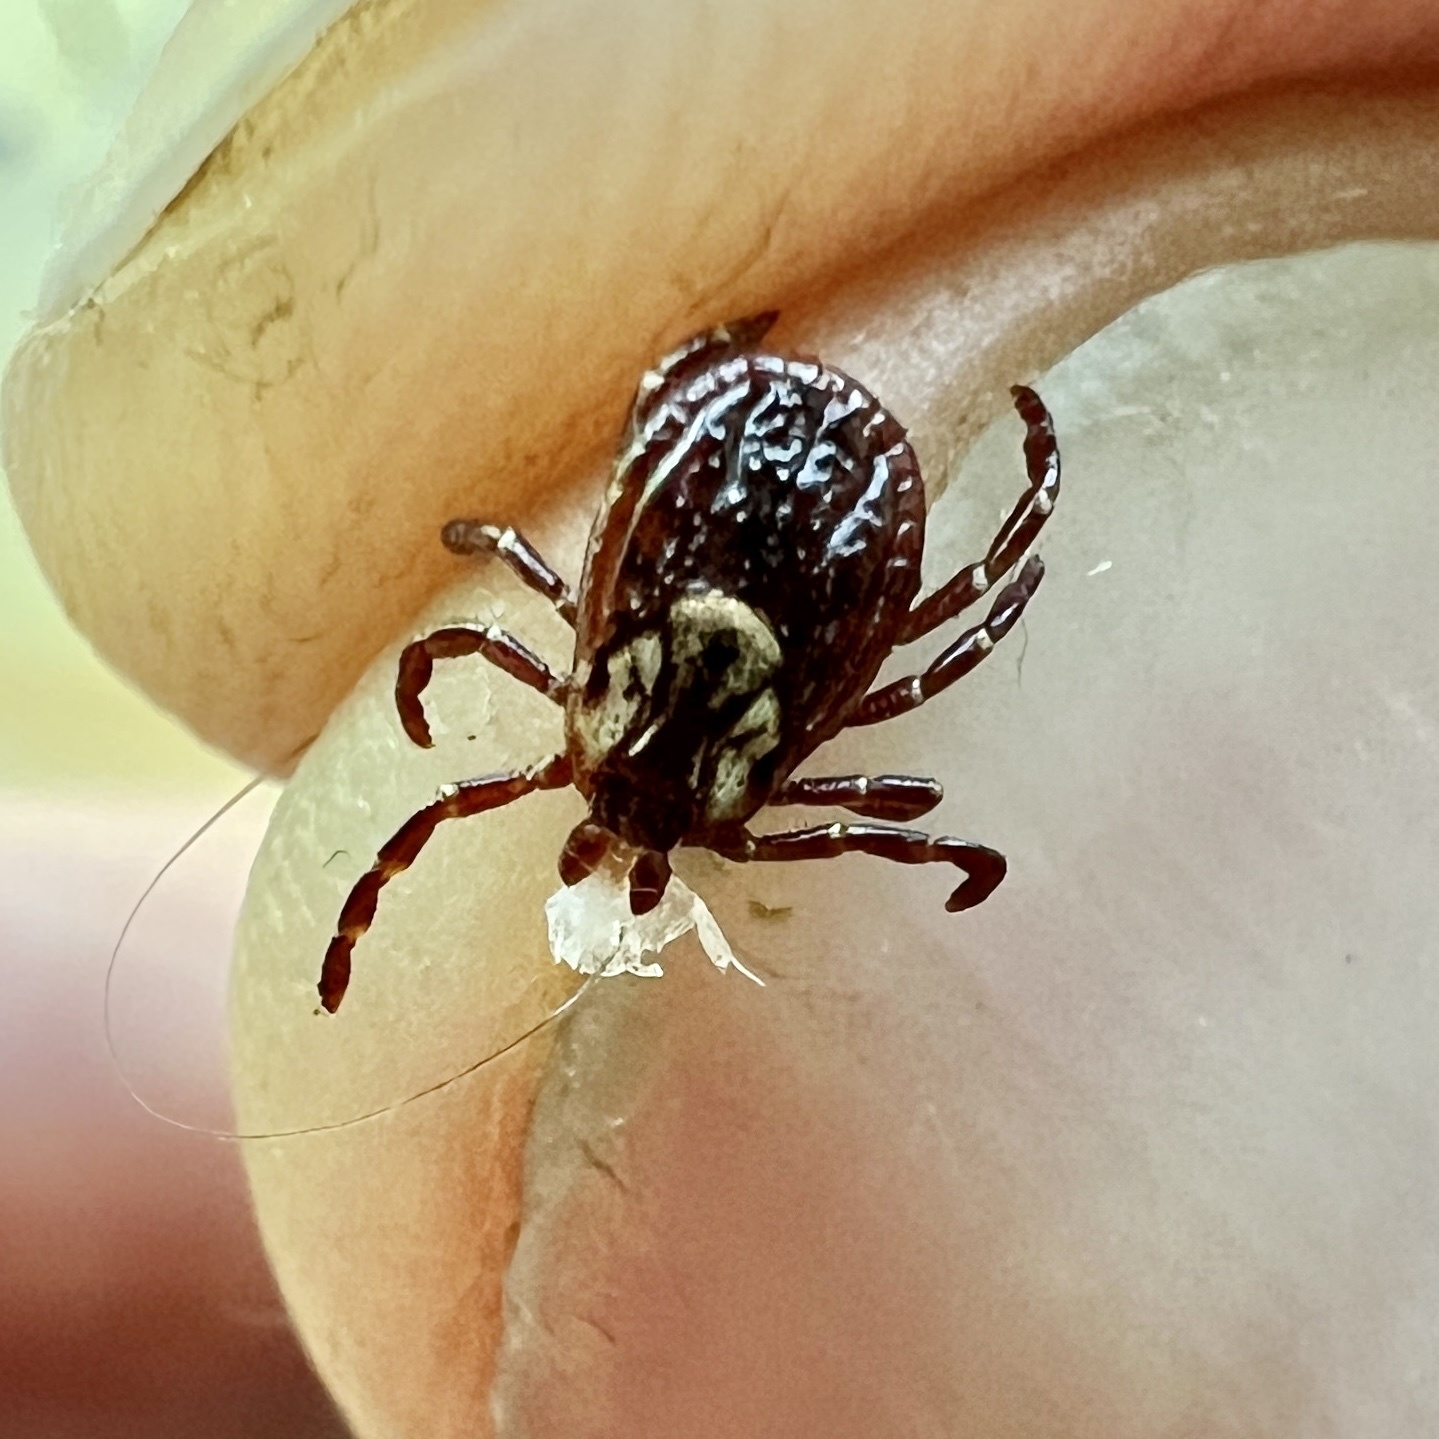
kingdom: Animalia
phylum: Arthropoda
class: Arachnida
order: Ixodida
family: Ixodidae
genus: Dermacentor
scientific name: Dermacentor variabilis
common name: American dog tick
